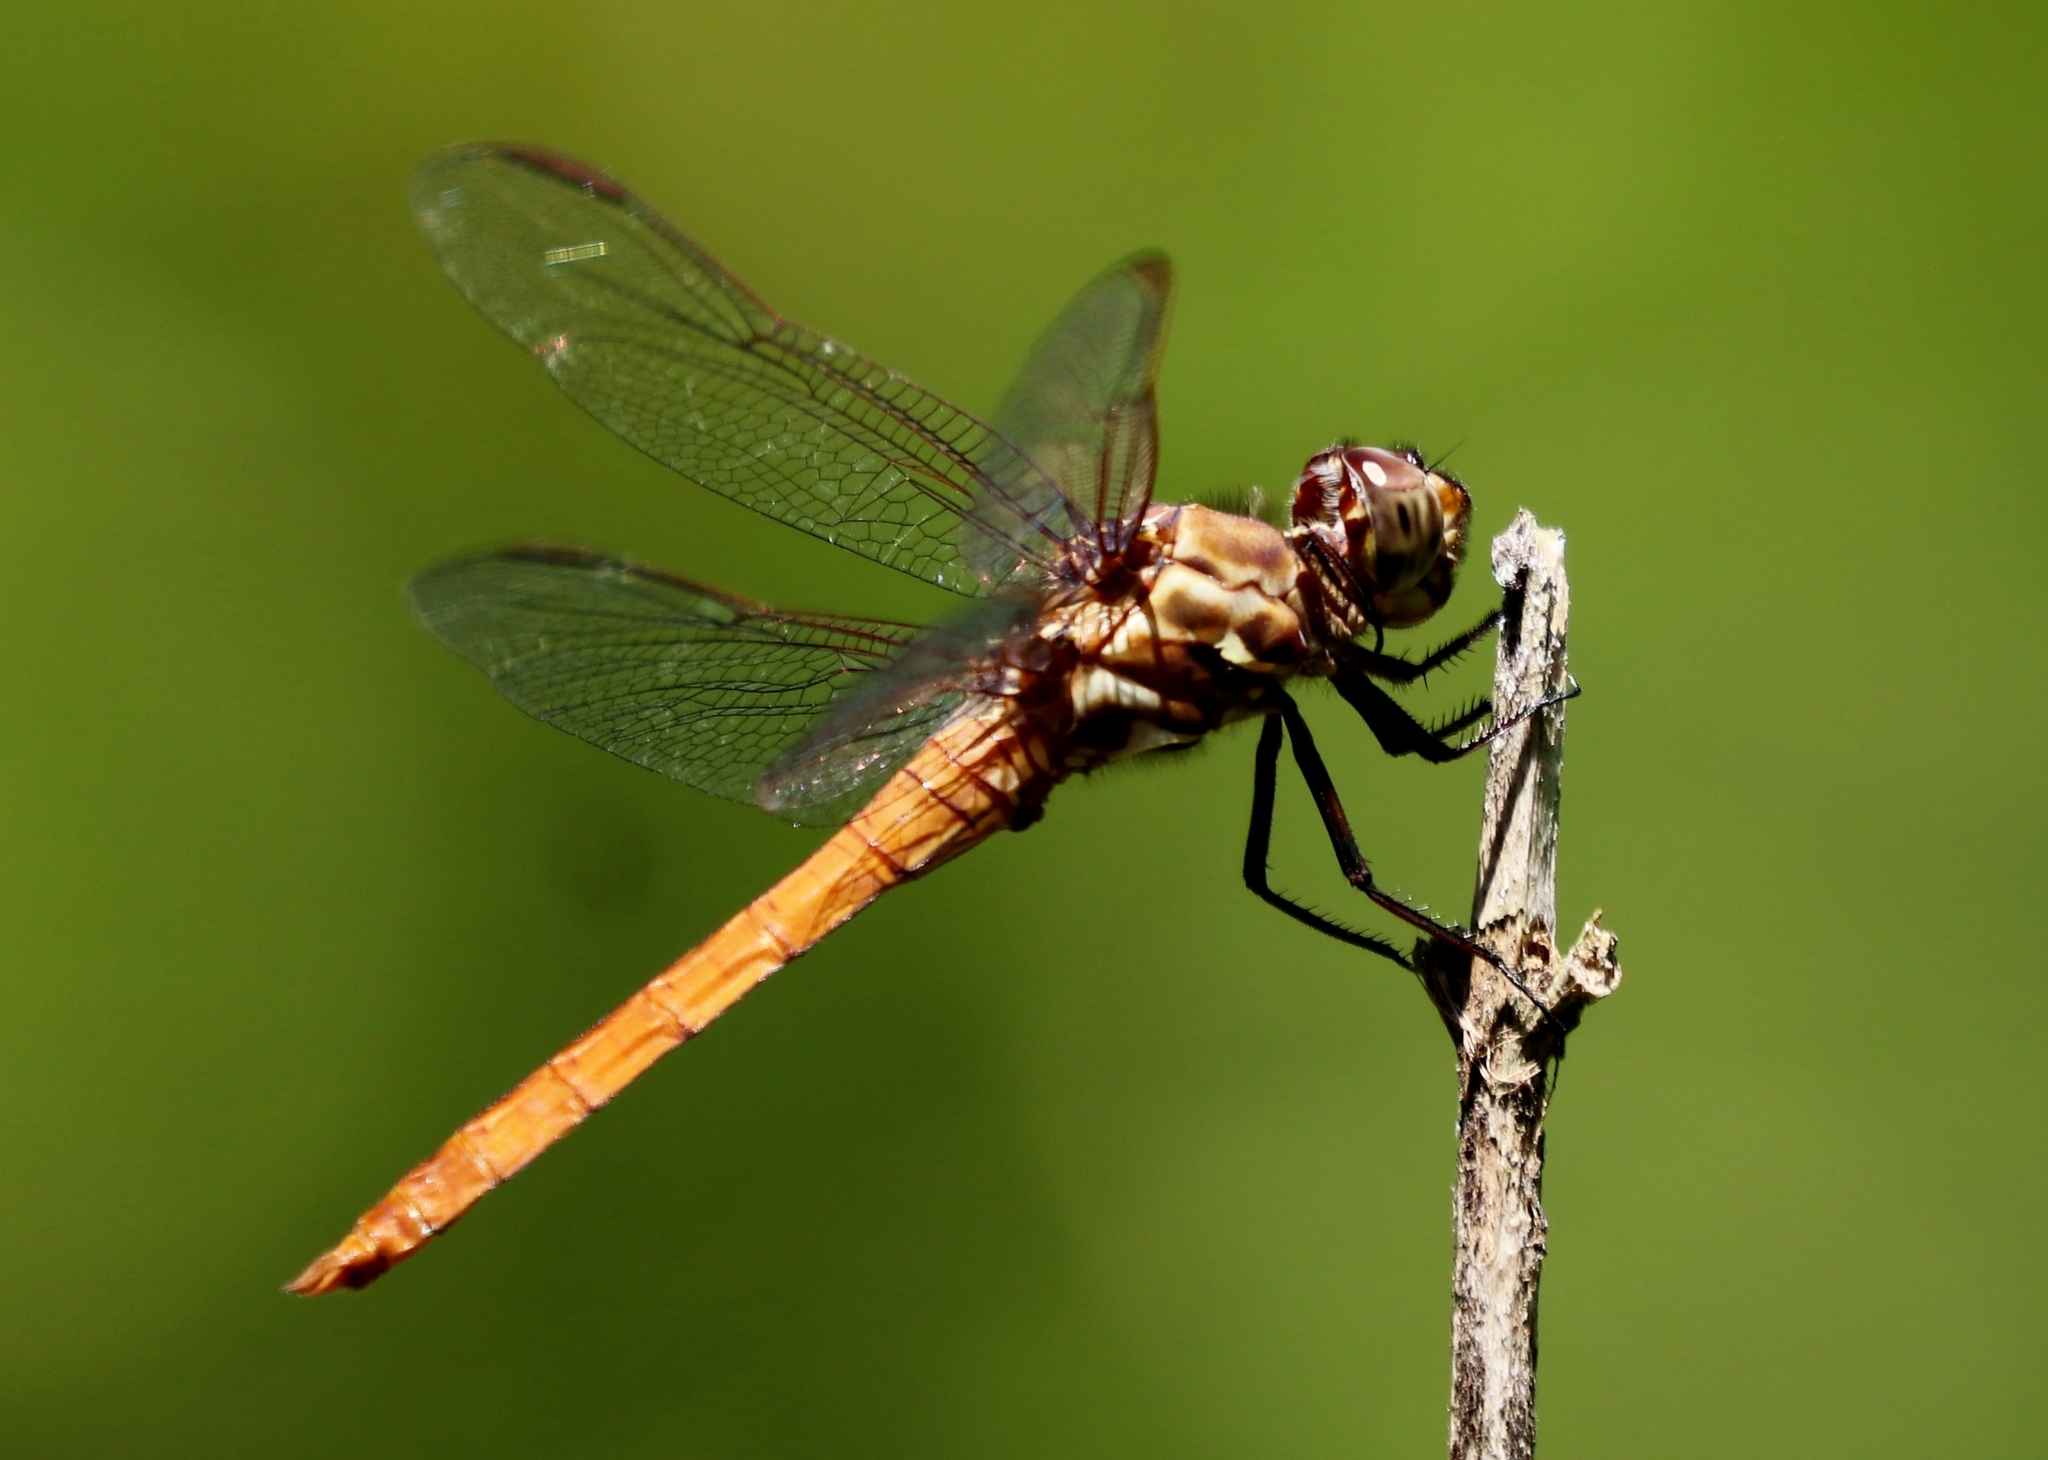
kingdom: Animalia
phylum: Arthropoda
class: Insecta
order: Odonata
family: Libellulidae
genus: Orthemis
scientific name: Orthemis ferruginea
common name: Roseate skimmer
